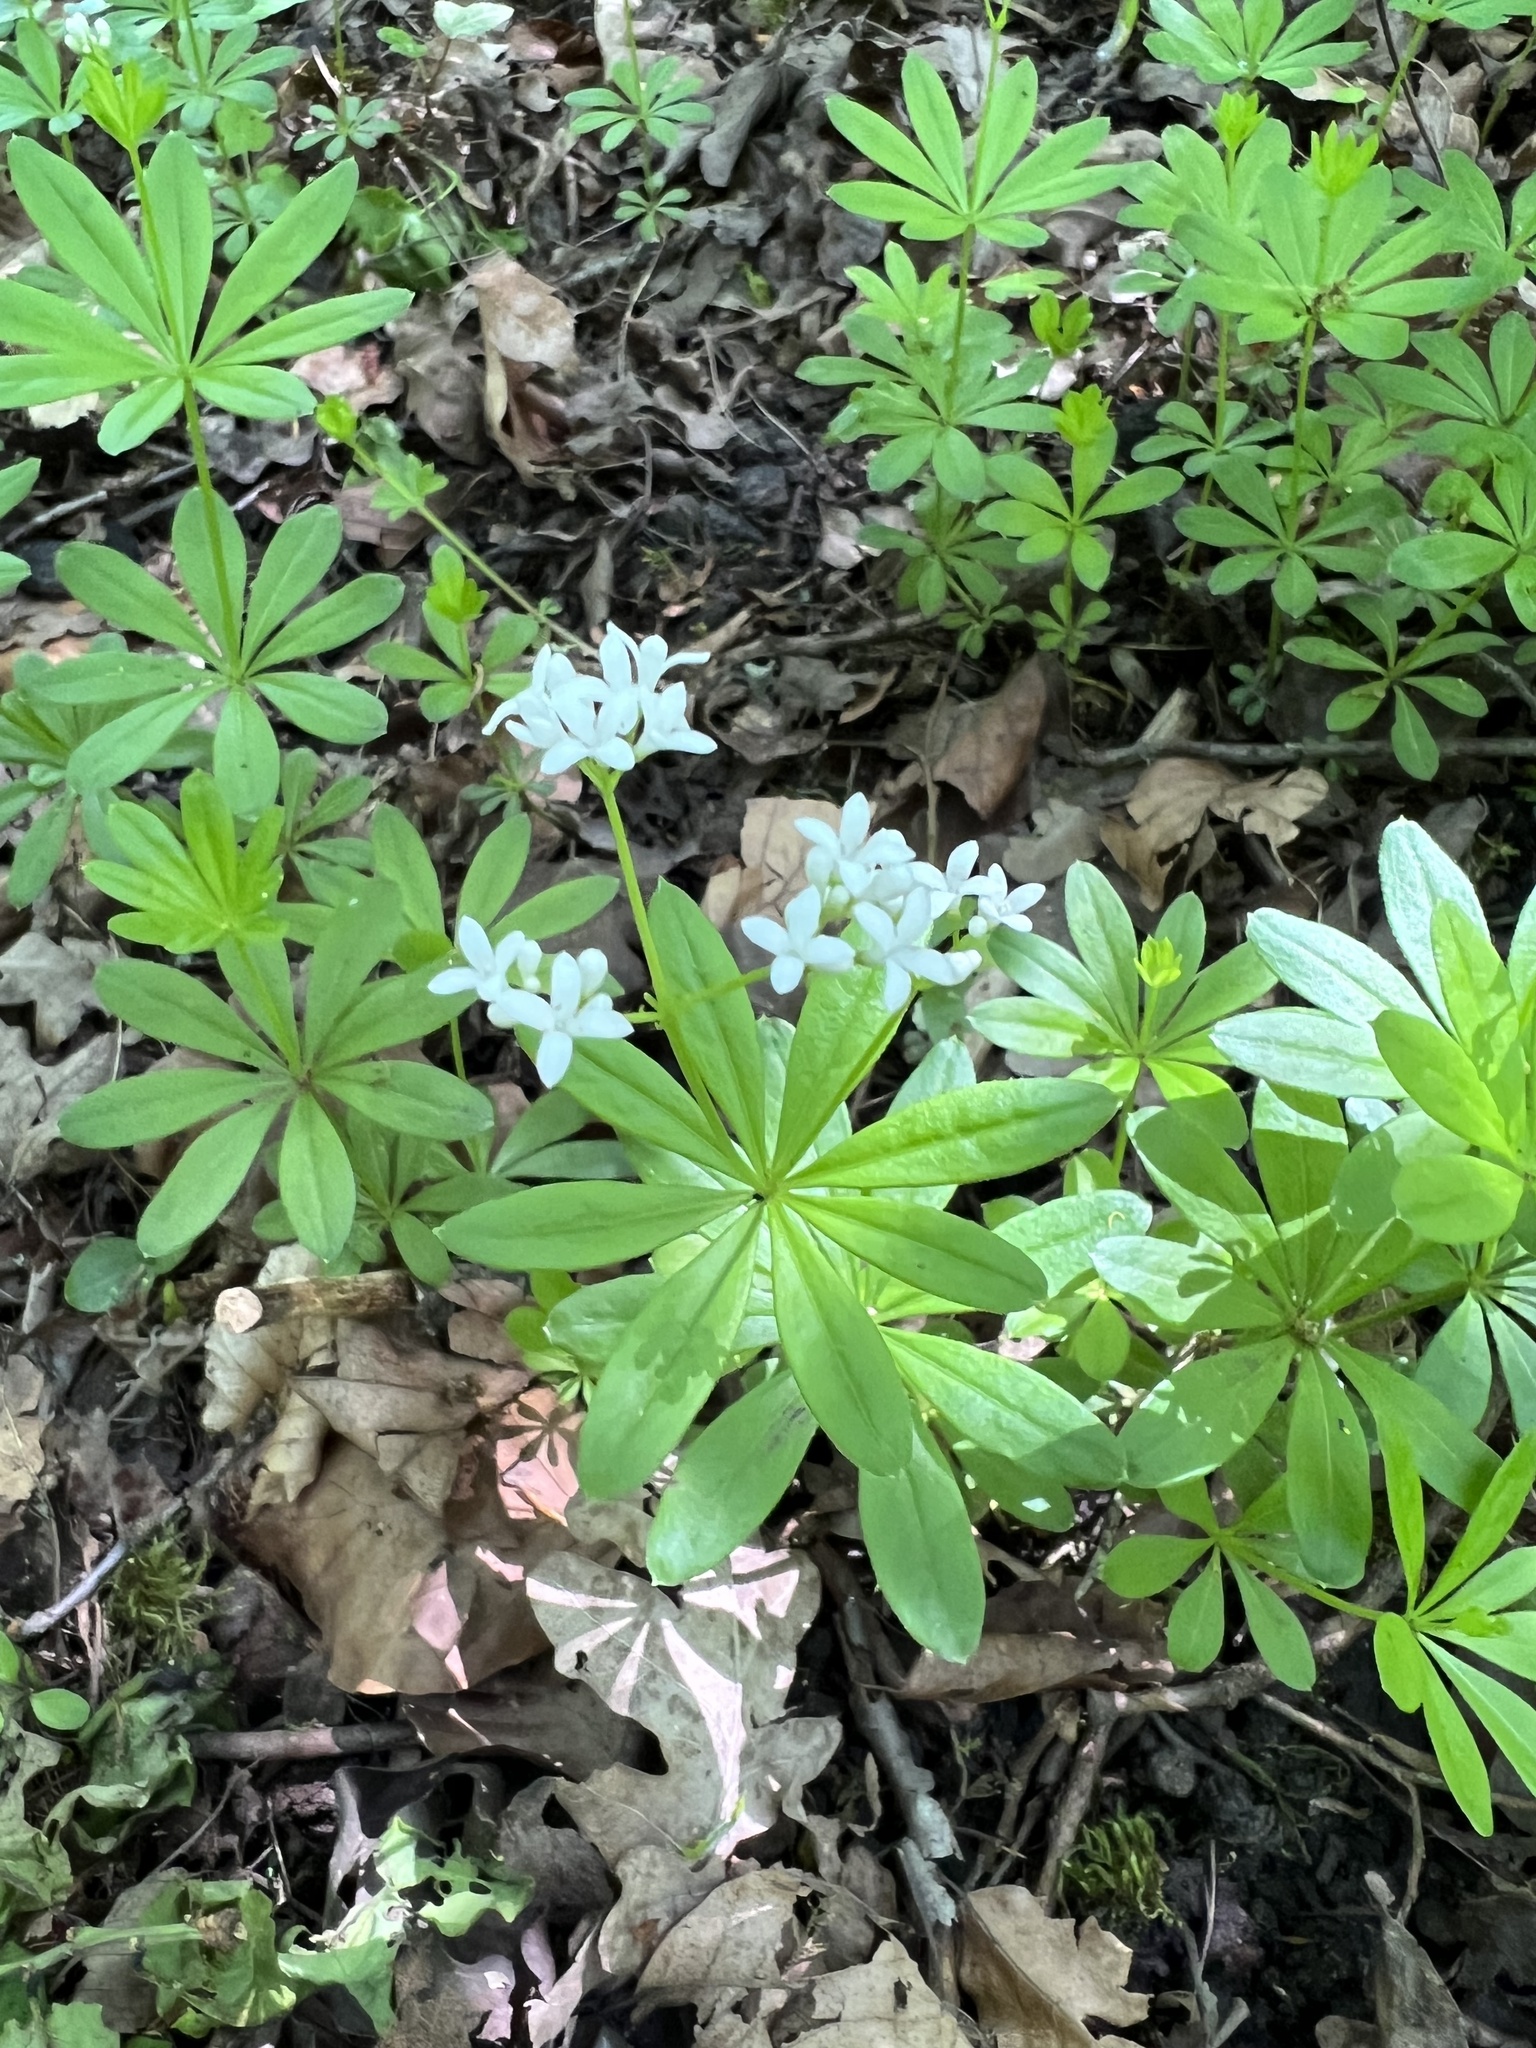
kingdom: Plantae
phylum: Tracheophyta
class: Magnoliopsida
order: Gentianales
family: Rubiaceae
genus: Galium
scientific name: Galium odoratum
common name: Sweet woodruff
